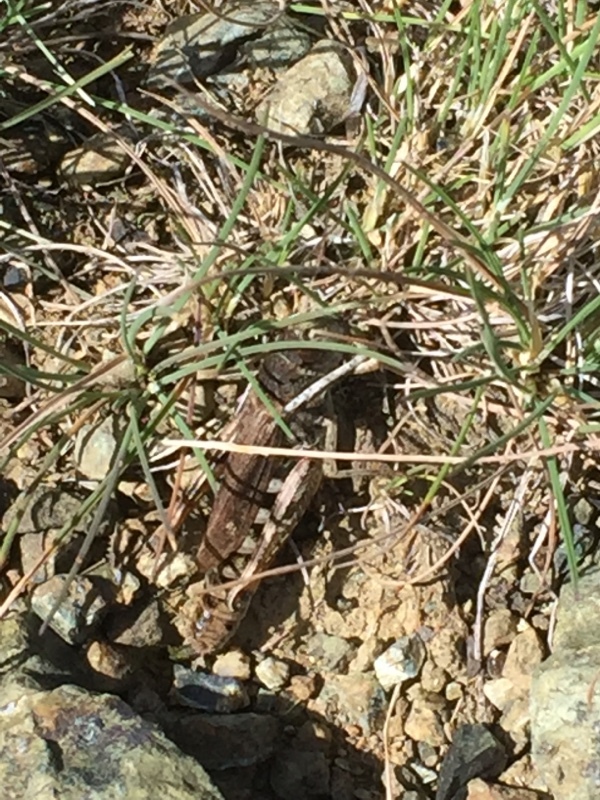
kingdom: Animalia
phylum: Arthropoda
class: Insecta
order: Orthoptera
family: Acrididae
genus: Gomphocerus
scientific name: Gomphocerus sibiricus
